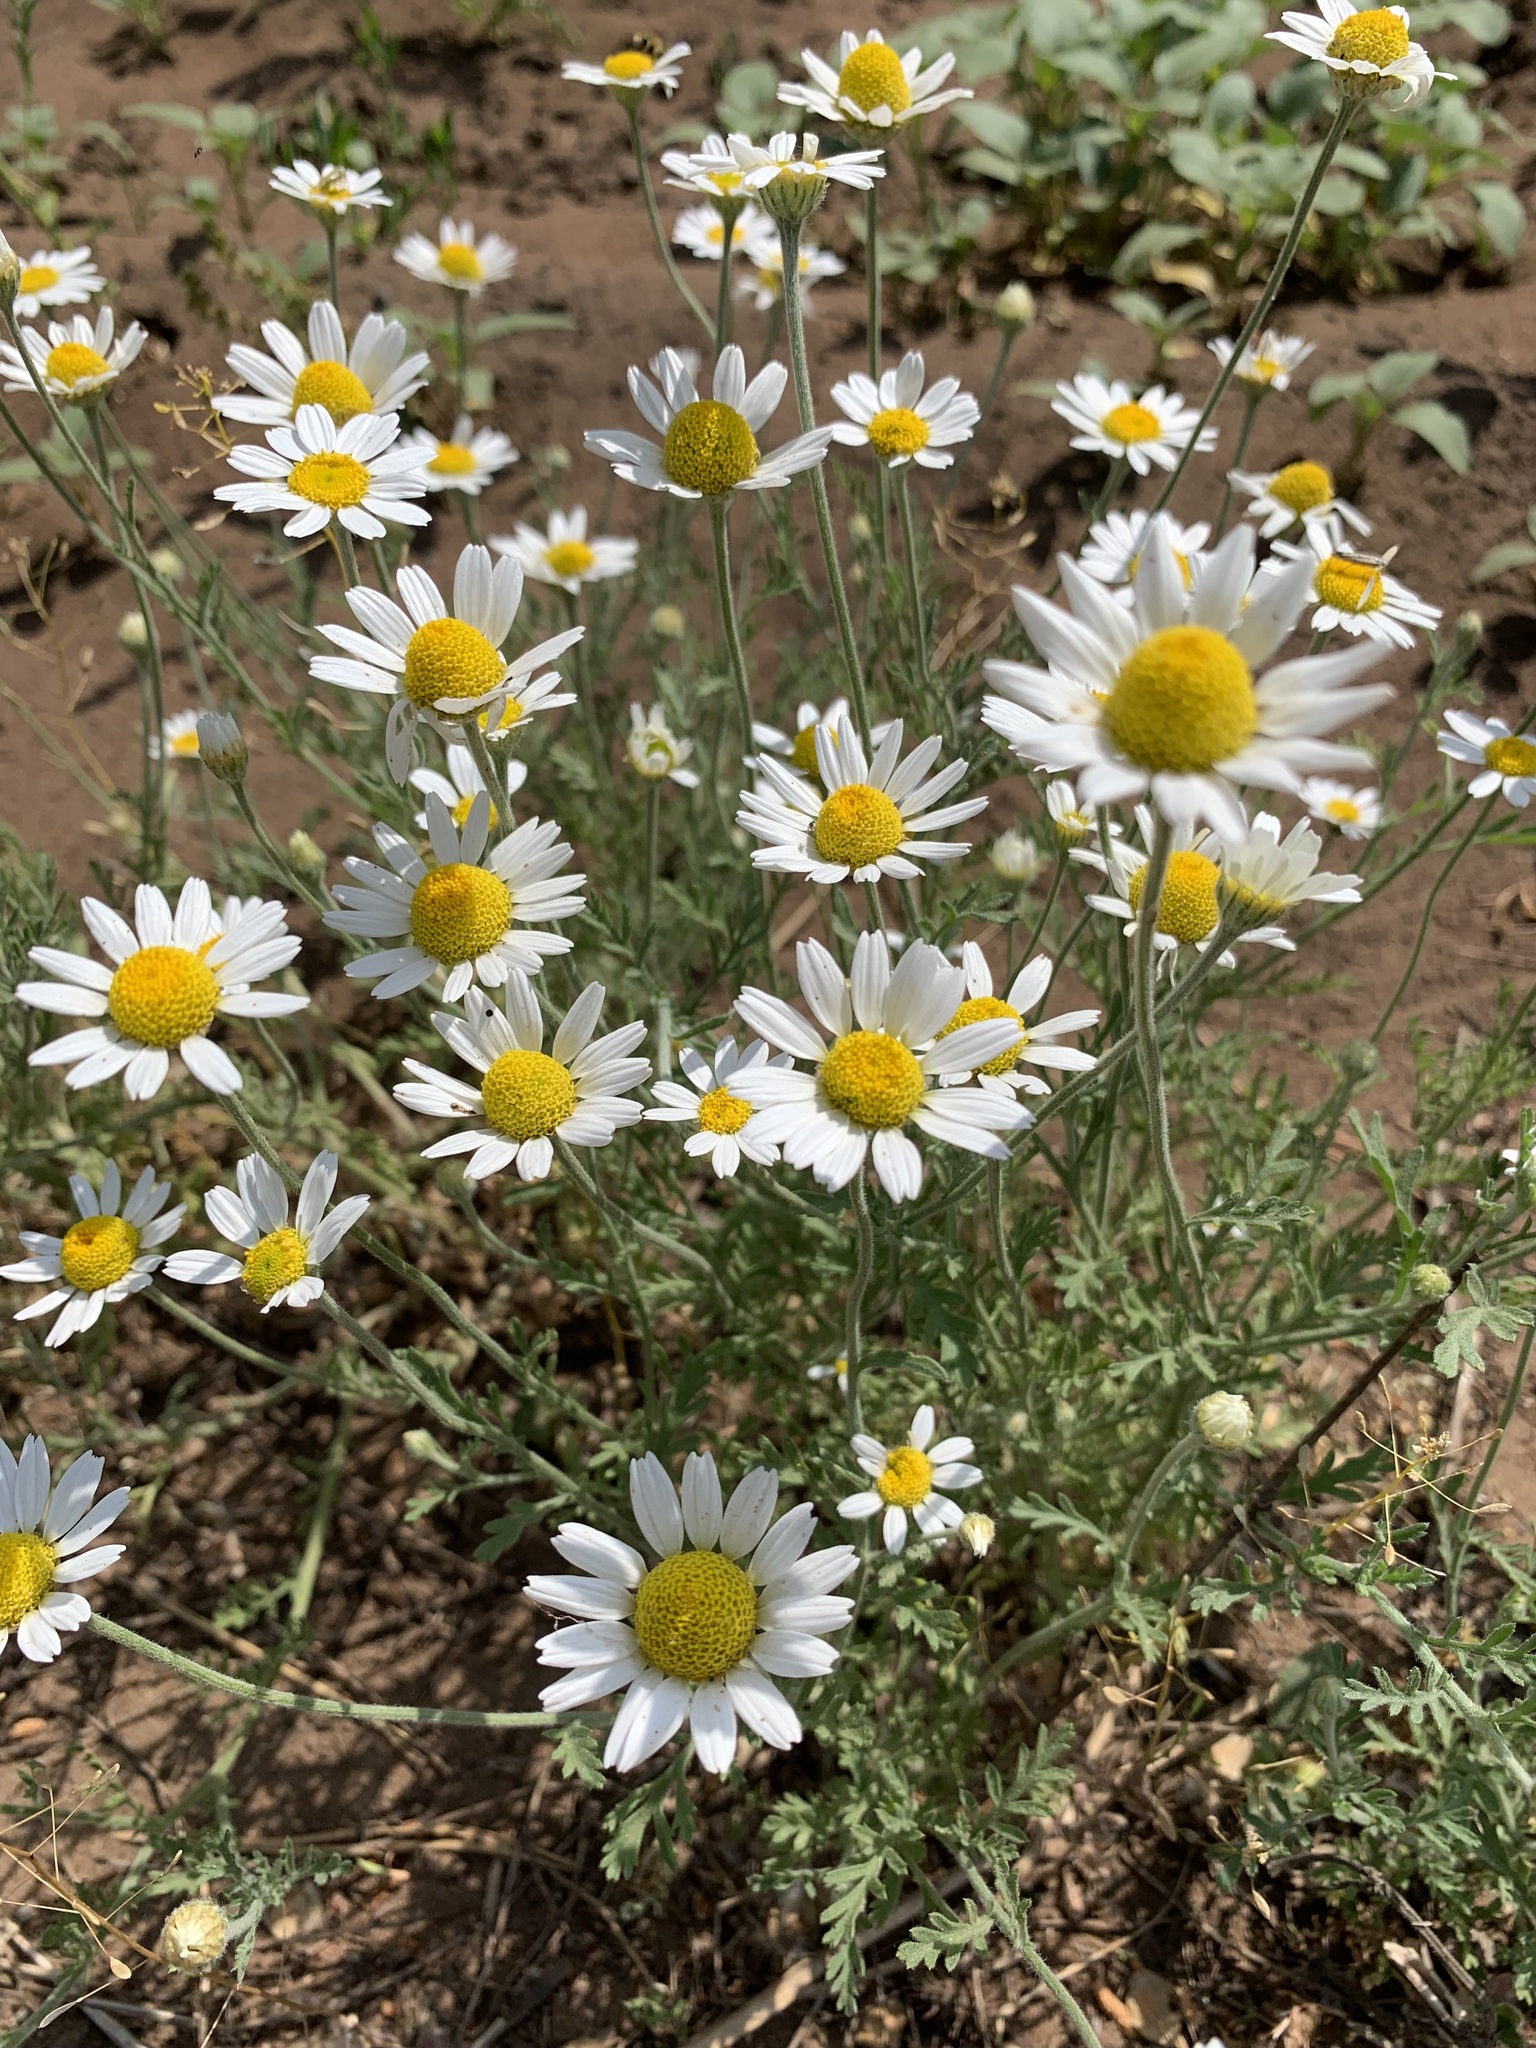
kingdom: Plantae
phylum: Tracheophyta
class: Magnoliopsida
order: Asterales
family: Asteraceae
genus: Anthemis
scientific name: Anthemis ruthenica
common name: Eastern chamomile
